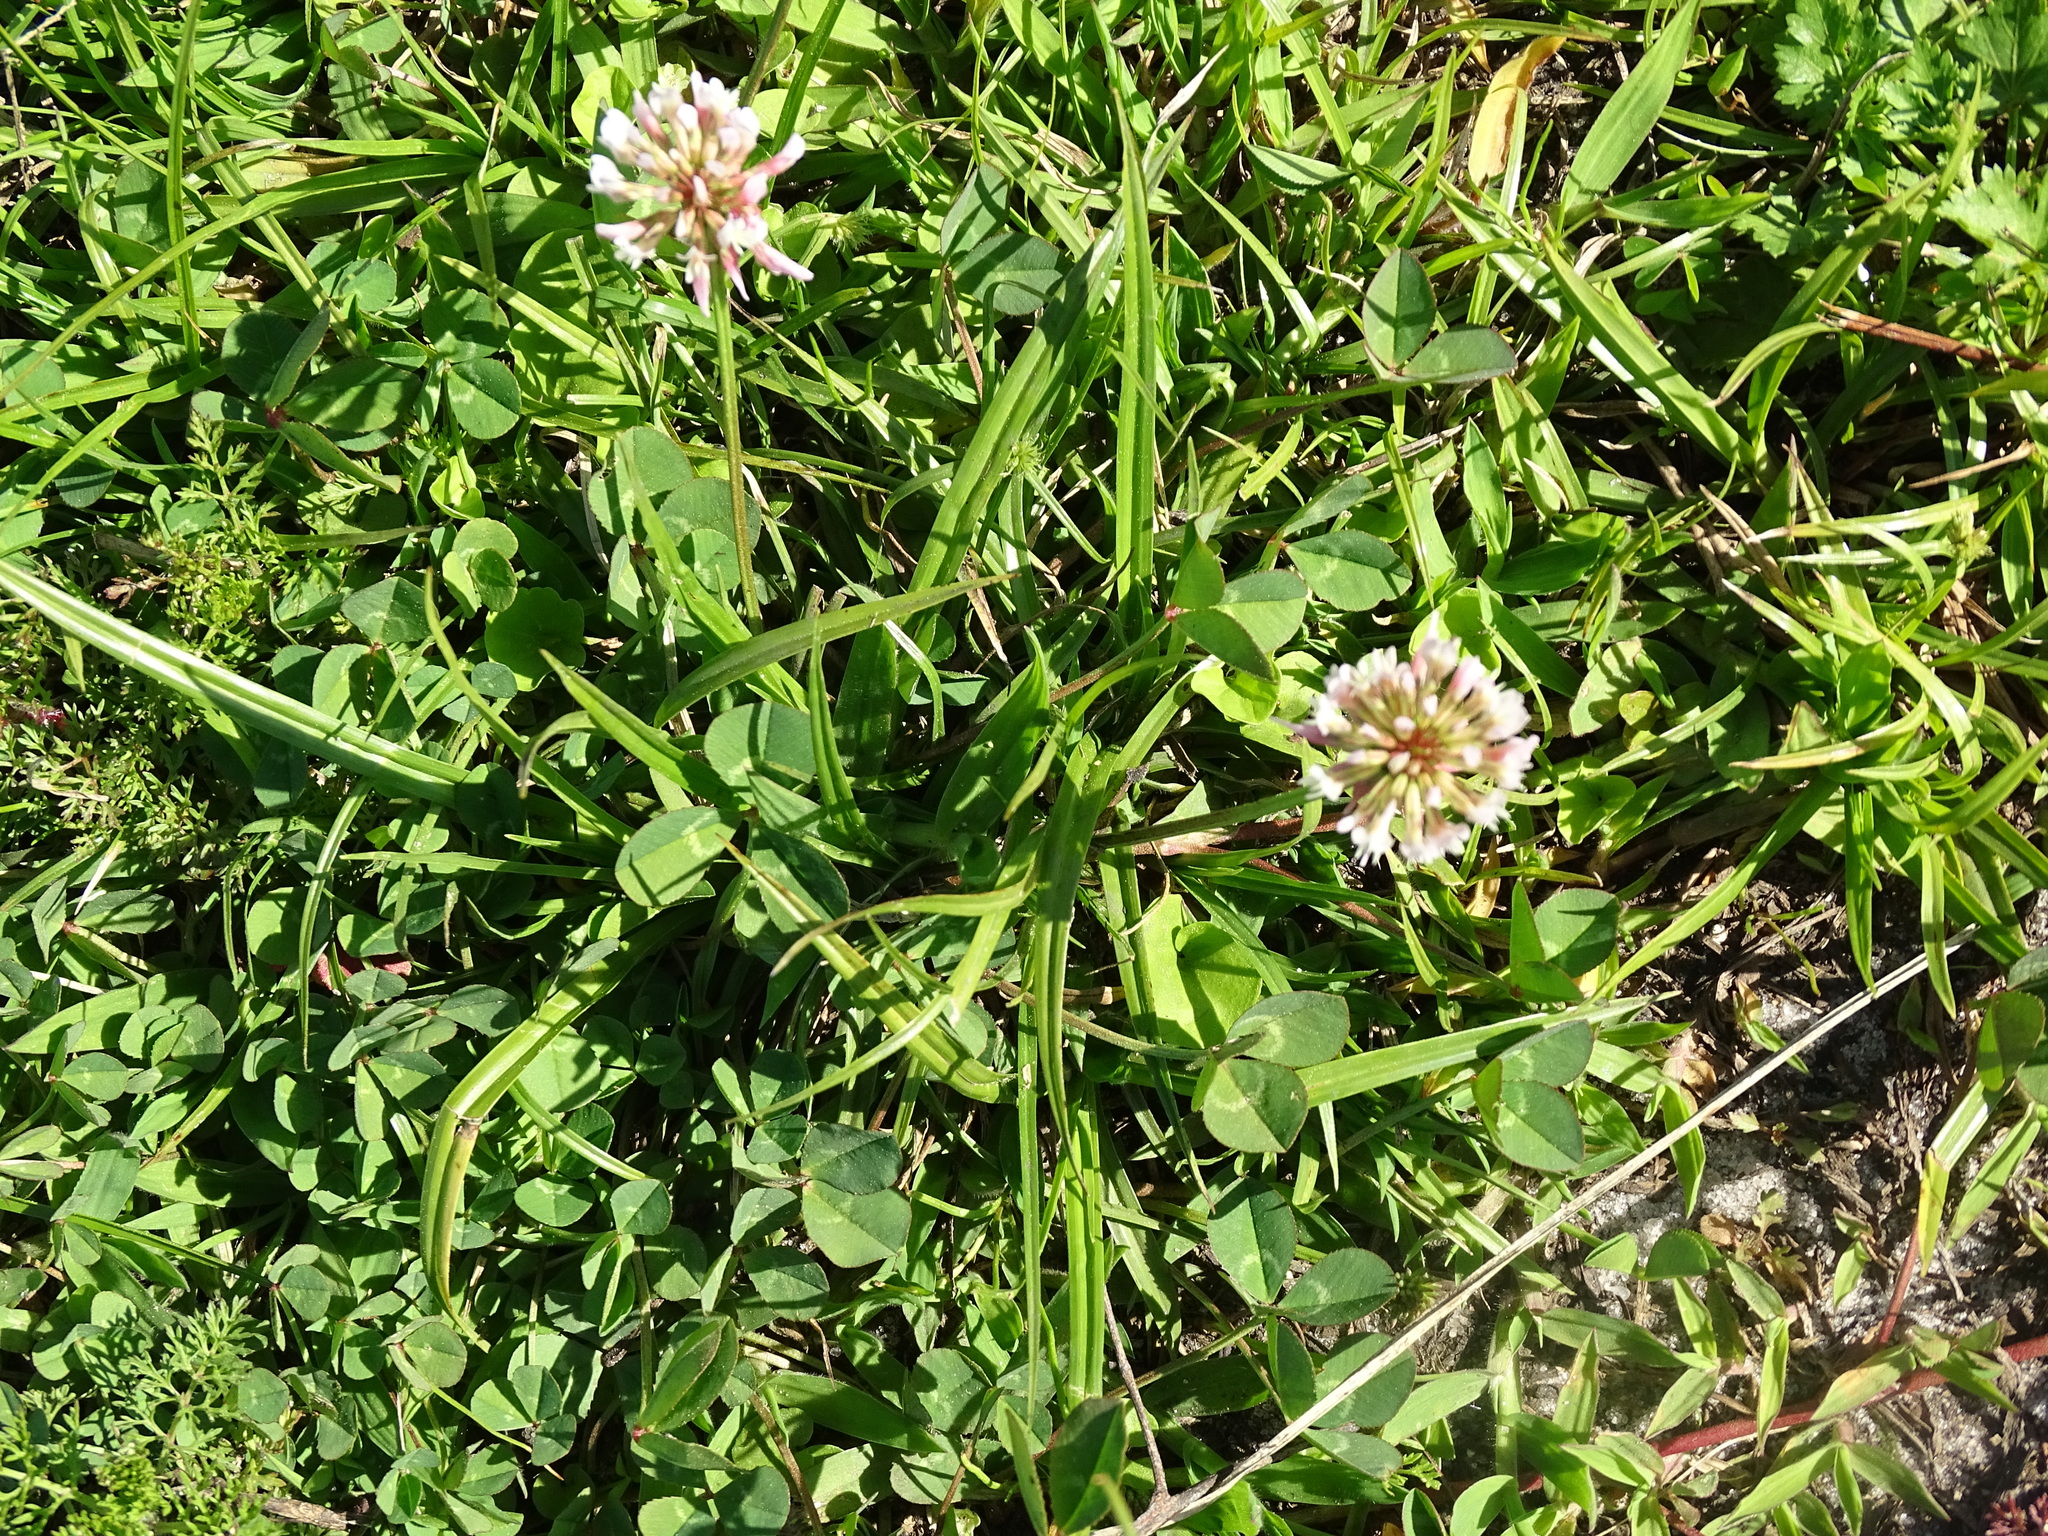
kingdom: Plantae
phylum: Tracheophyta
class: Magnoliopsida
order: Fabales
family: Fabaceae
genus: Trifolium
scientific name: Trifolium repens
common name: White clover
